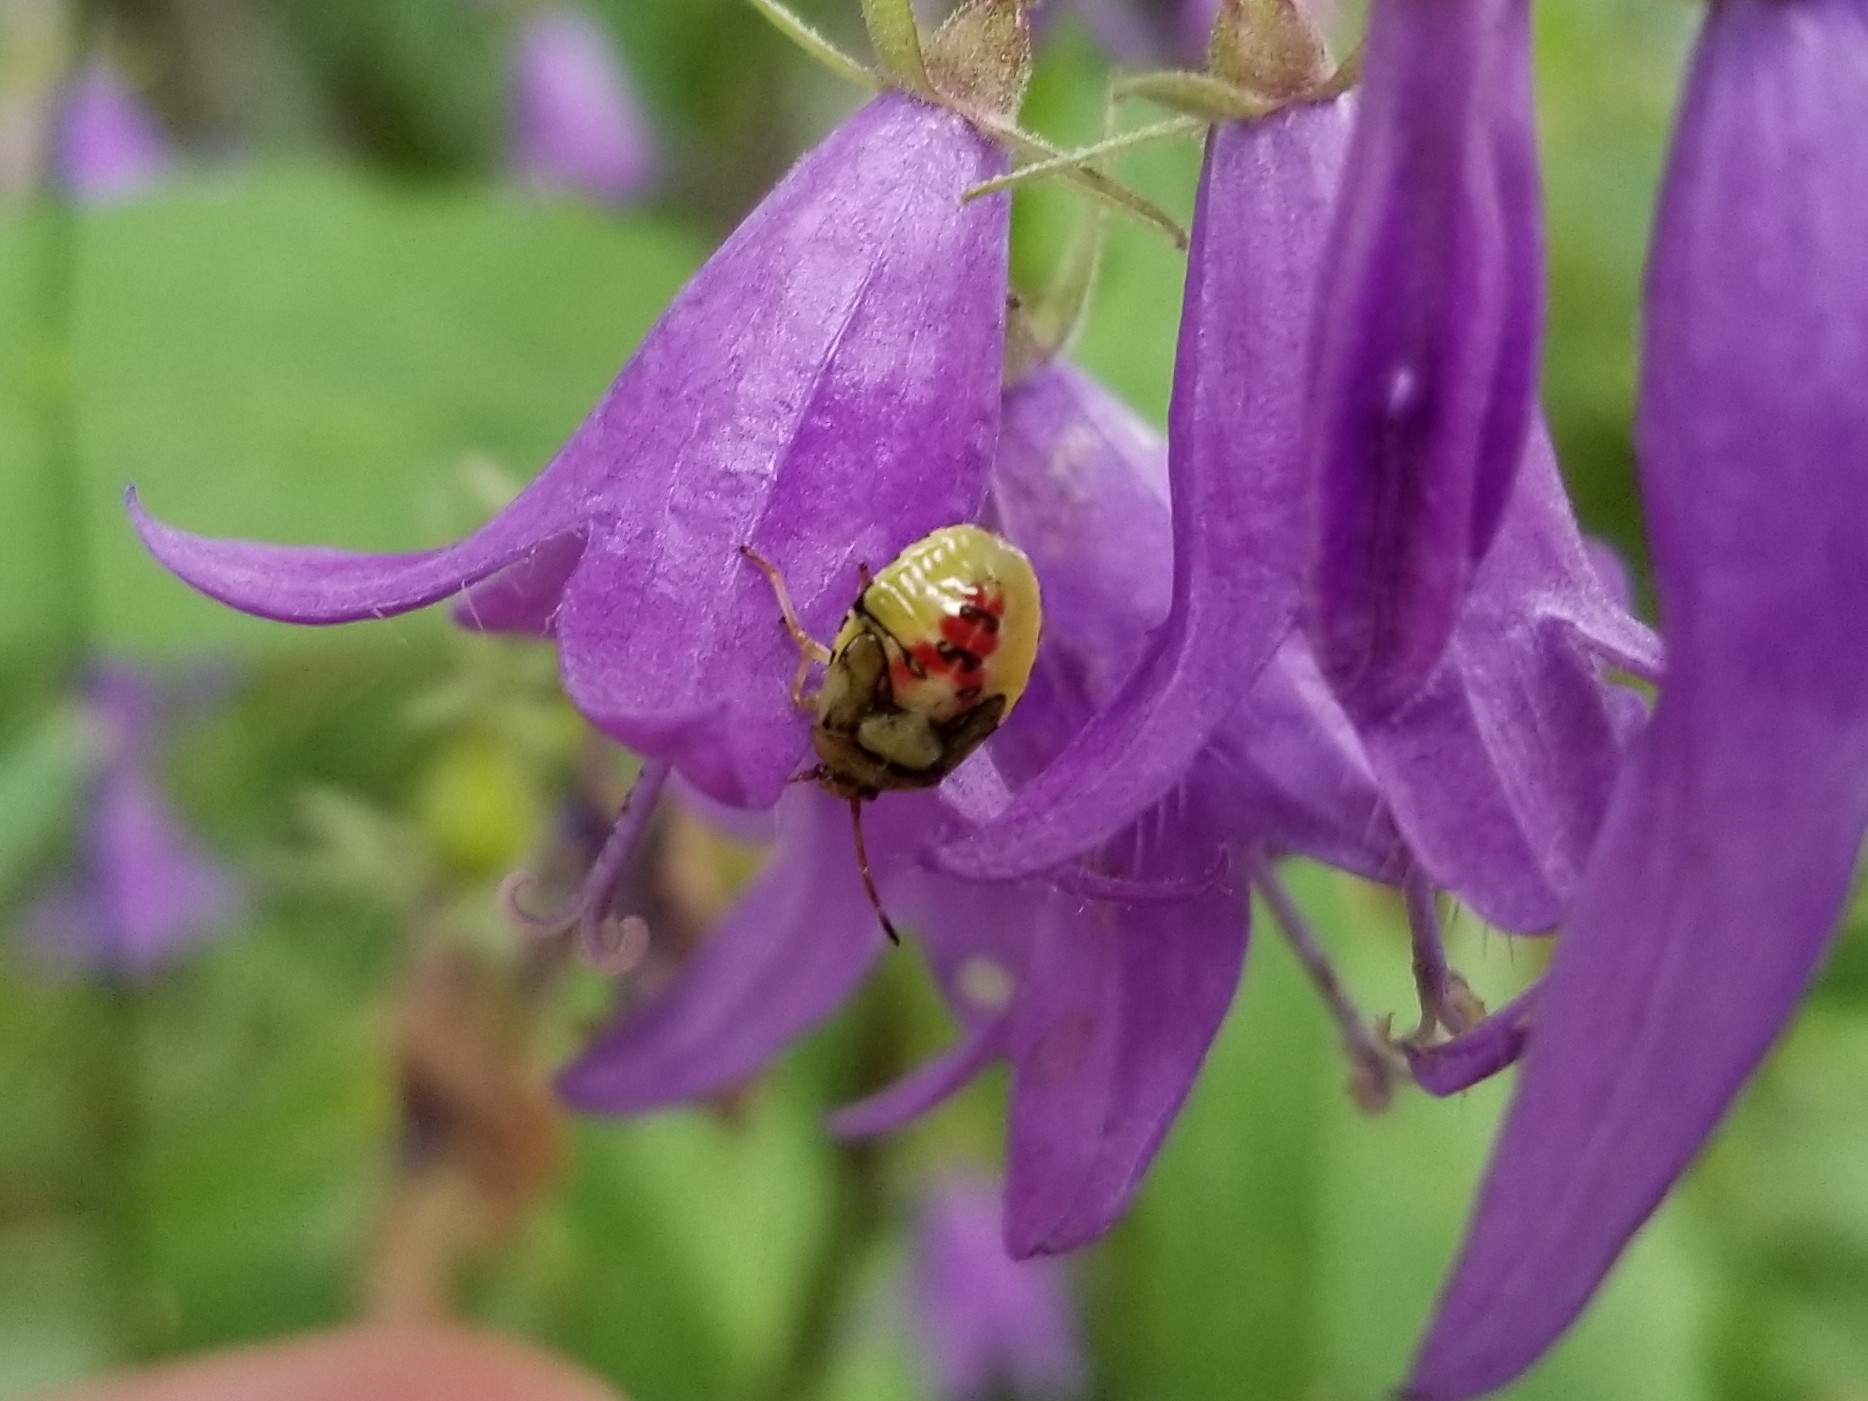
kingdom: Animalia
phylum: Arthropoda
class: Insecta
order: Hemiptera
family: Acanthosomatidae
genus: Elasmostethus
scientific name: Elasmostethus interstinctus
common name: Birch shieldbug
